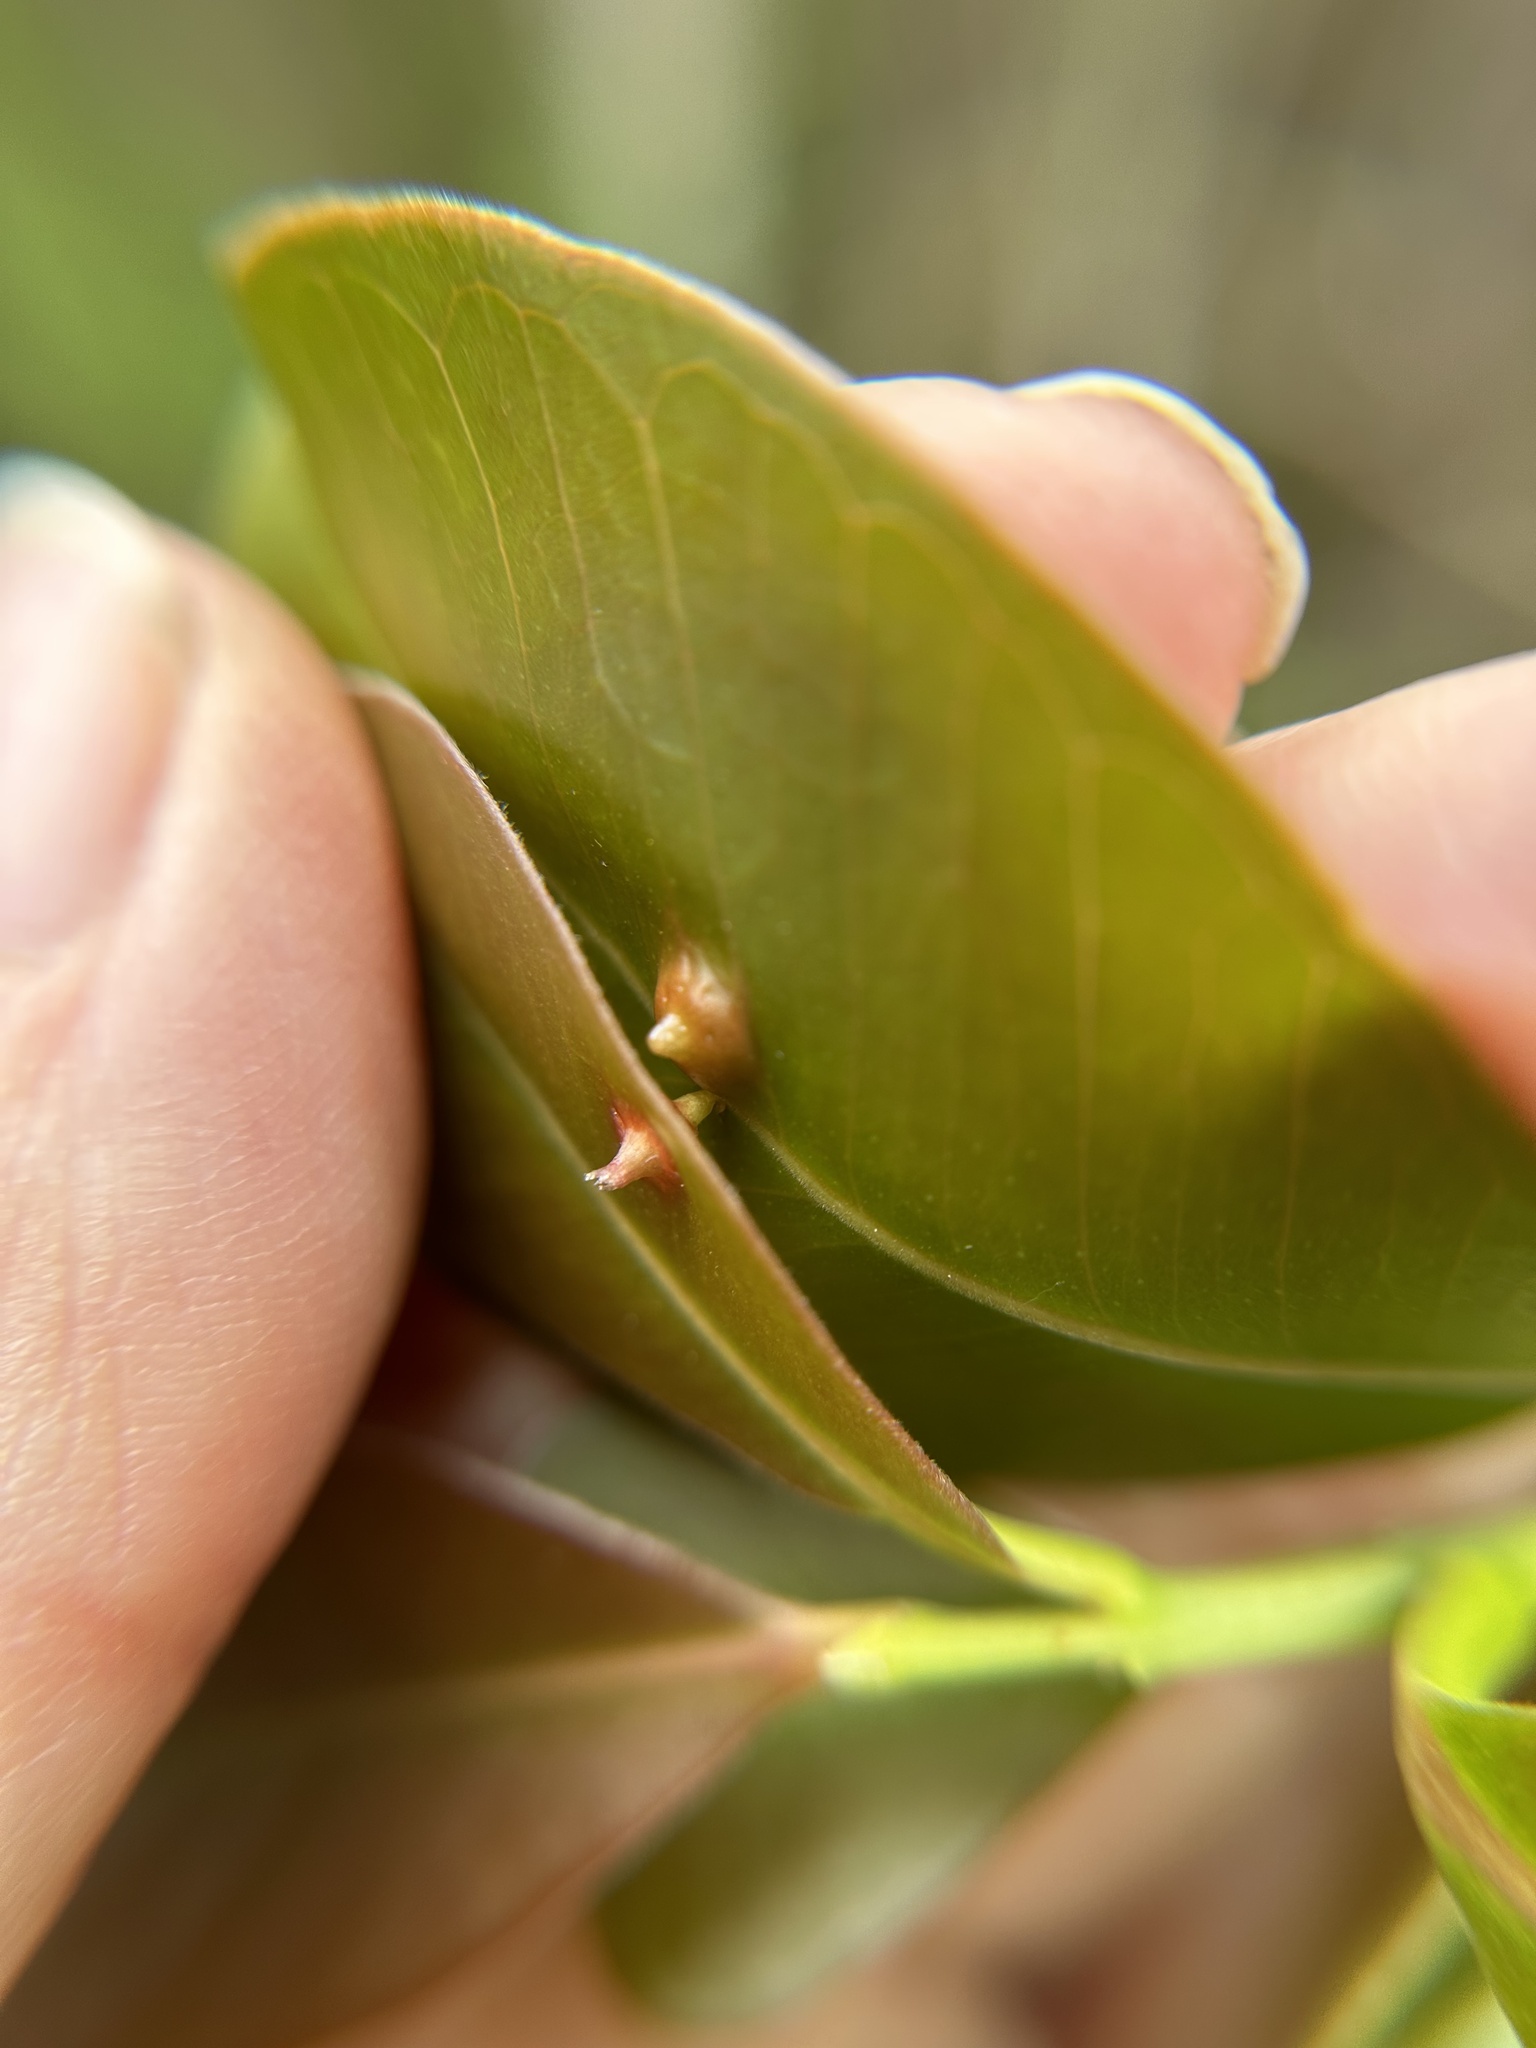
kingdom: Animalia
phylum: Arthropoda
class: Insecta
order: Hemiptera
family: Eriococcidae
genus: Tectococcus
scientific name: Tectococcus ovatus
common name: Eriococcid scale
